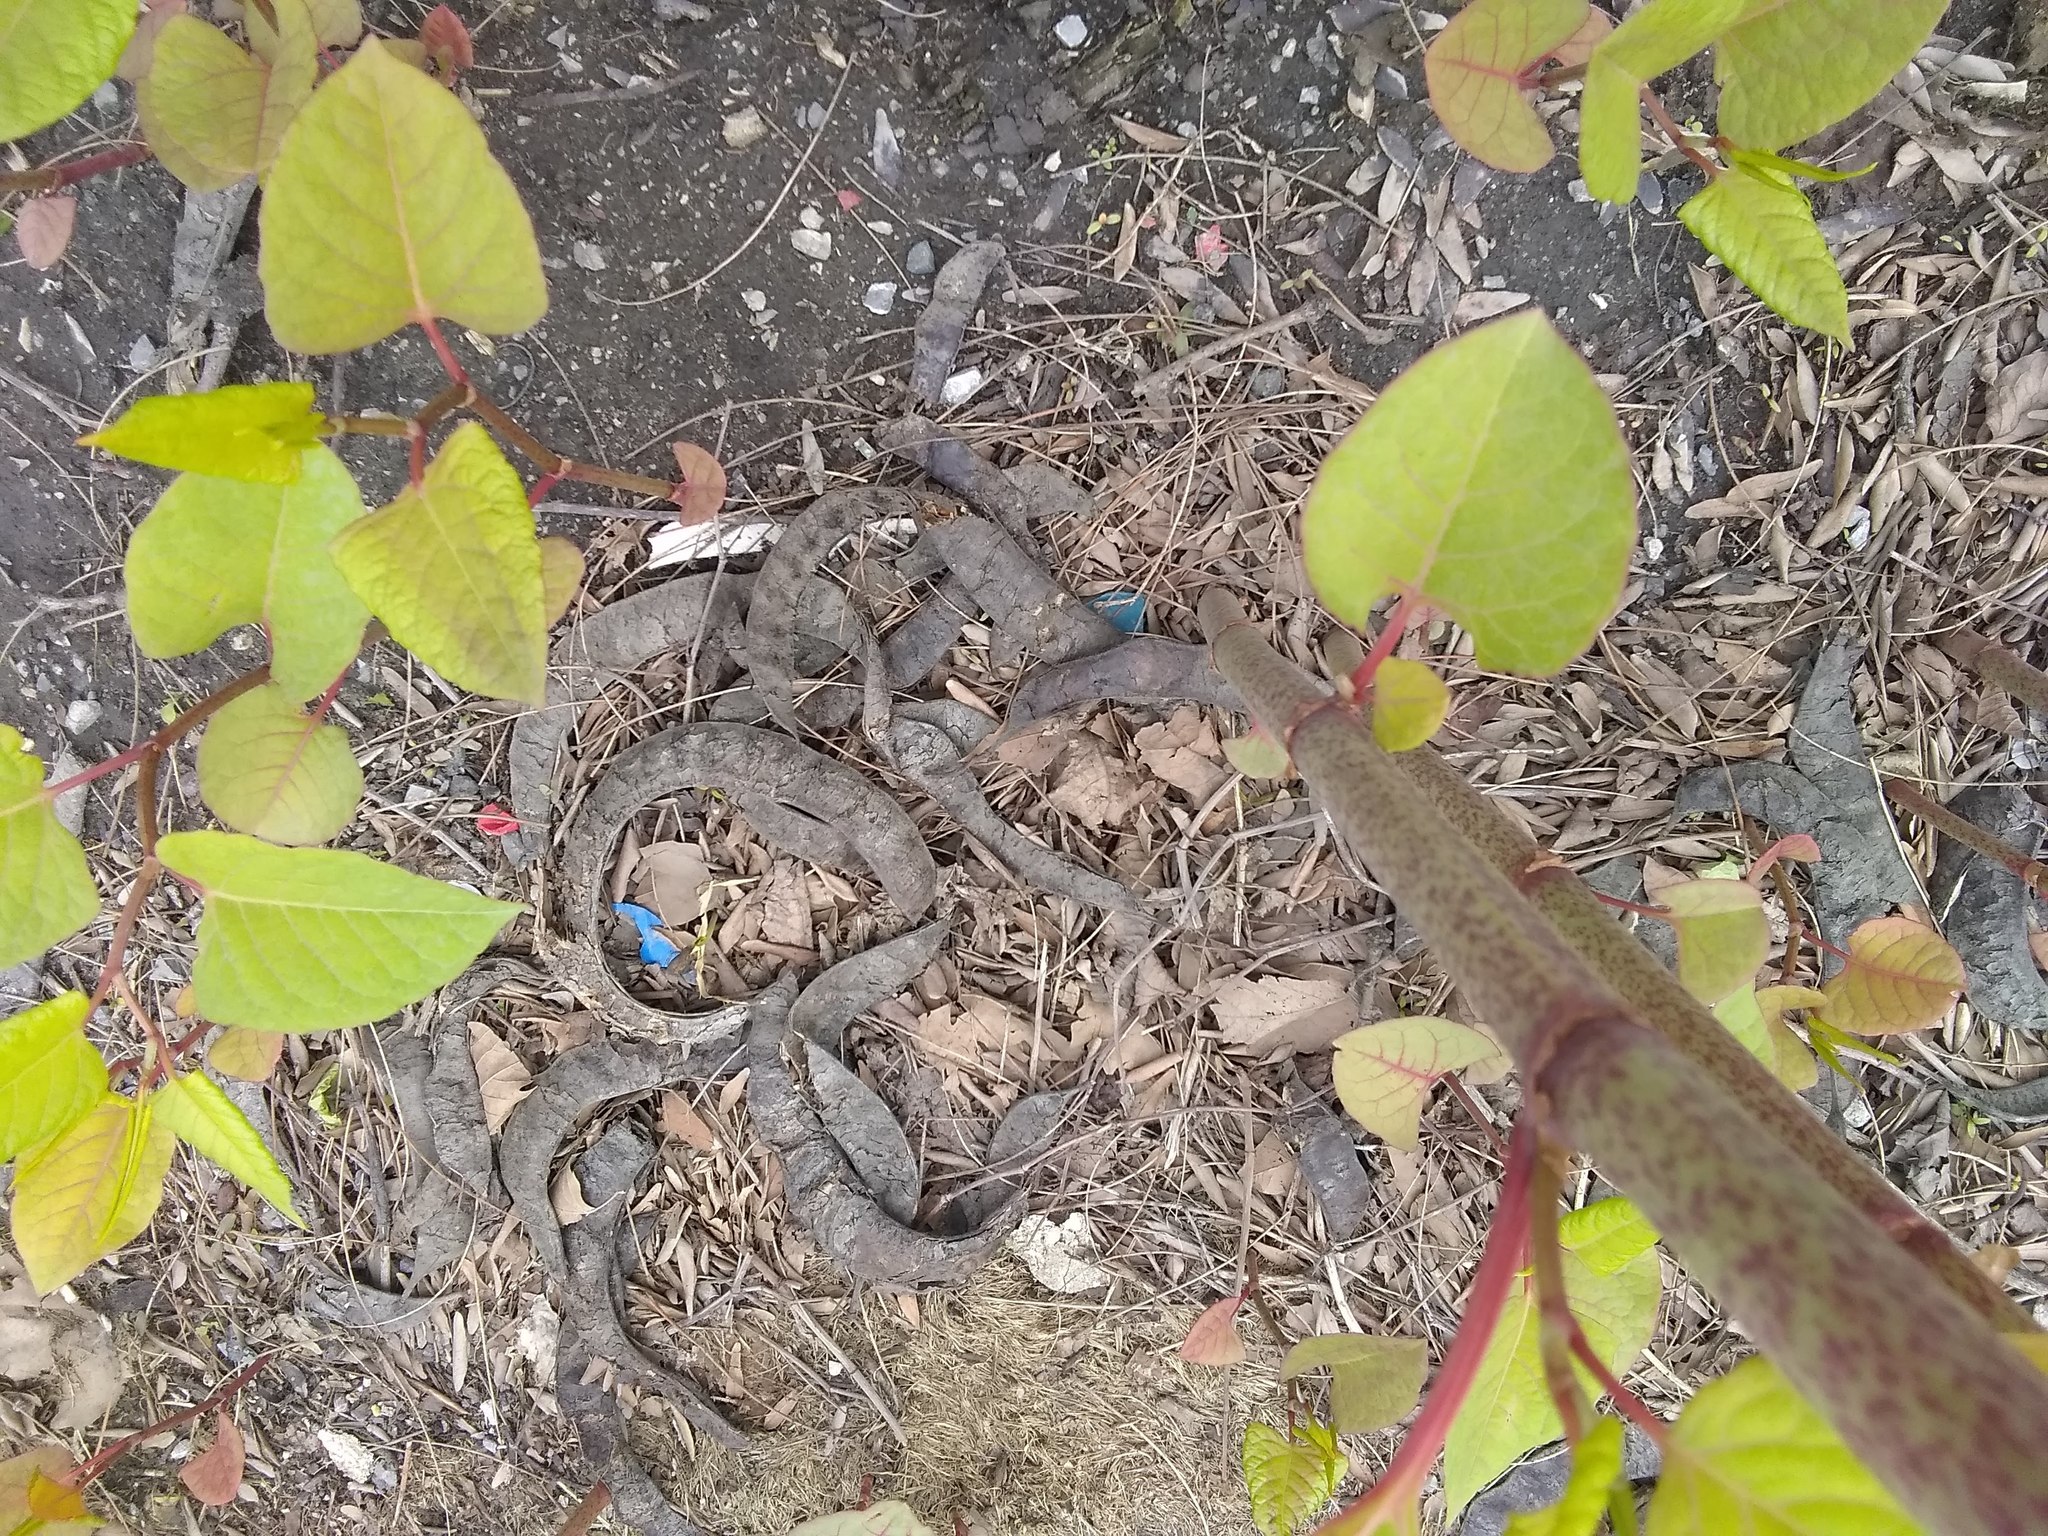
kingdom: Plantae
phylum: Tracheophyta
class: Magnoliopsida
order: Caryophyllales
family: Polygonaceae
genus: Reynoutria
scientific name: Reynoutria japonica
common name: Japanese knotweed
